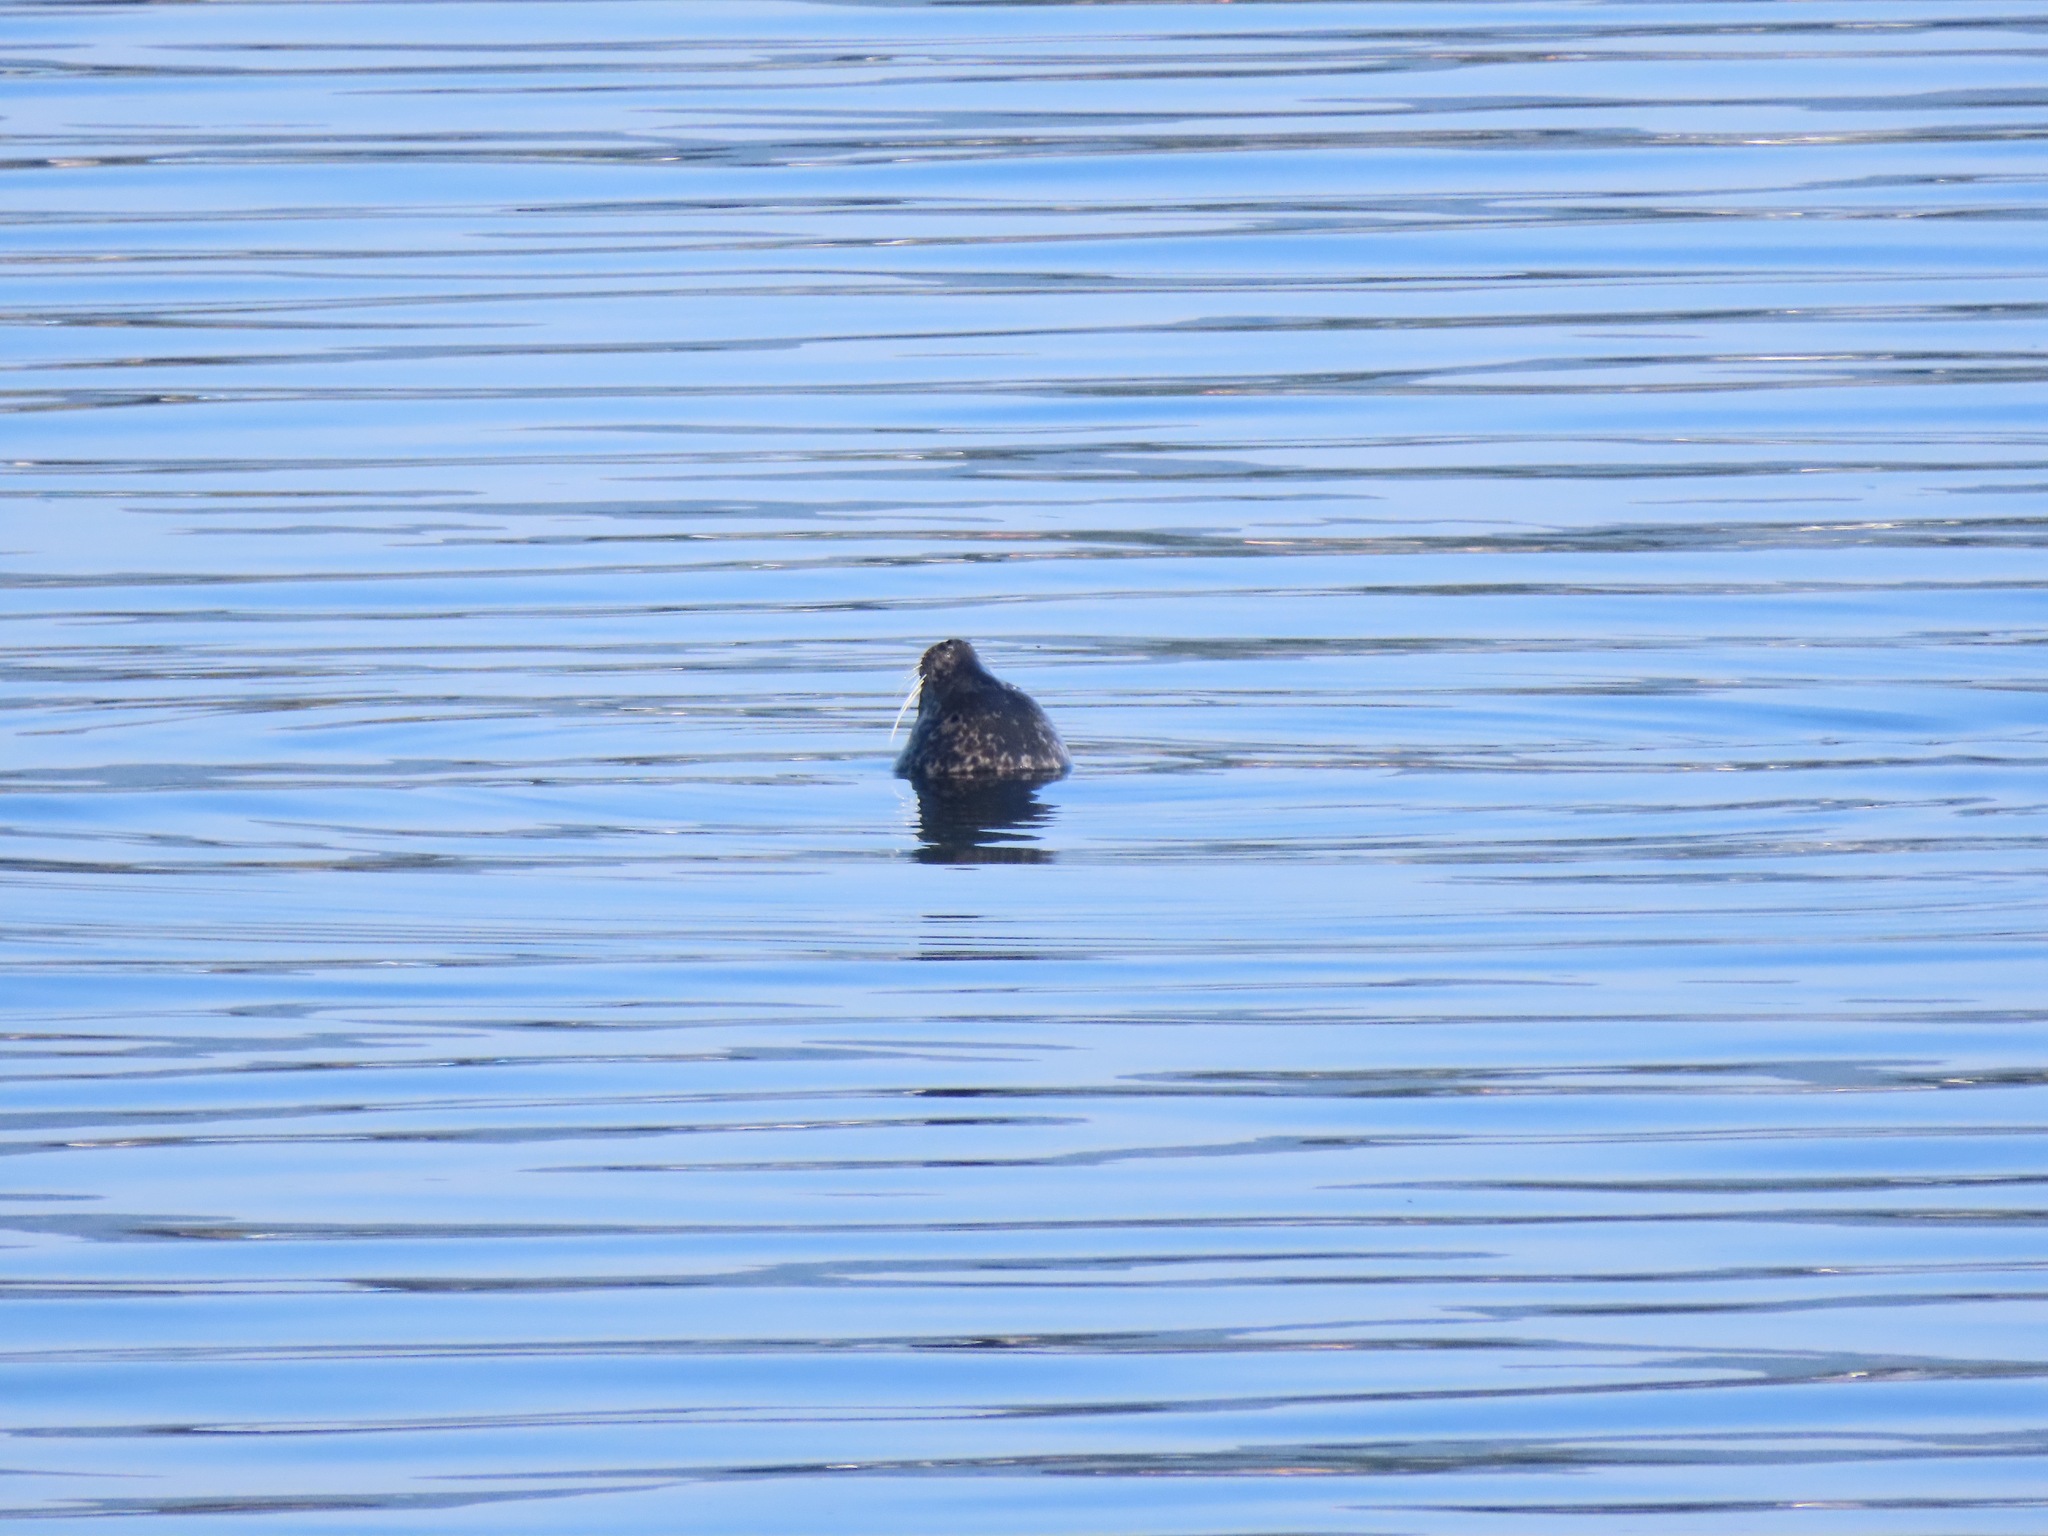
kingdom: Animalia
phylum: Chordata
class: Mammalia
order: Carnivora
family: Phocidae
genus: Phoca
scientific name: Phoca vitulina
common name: Harbor seal
